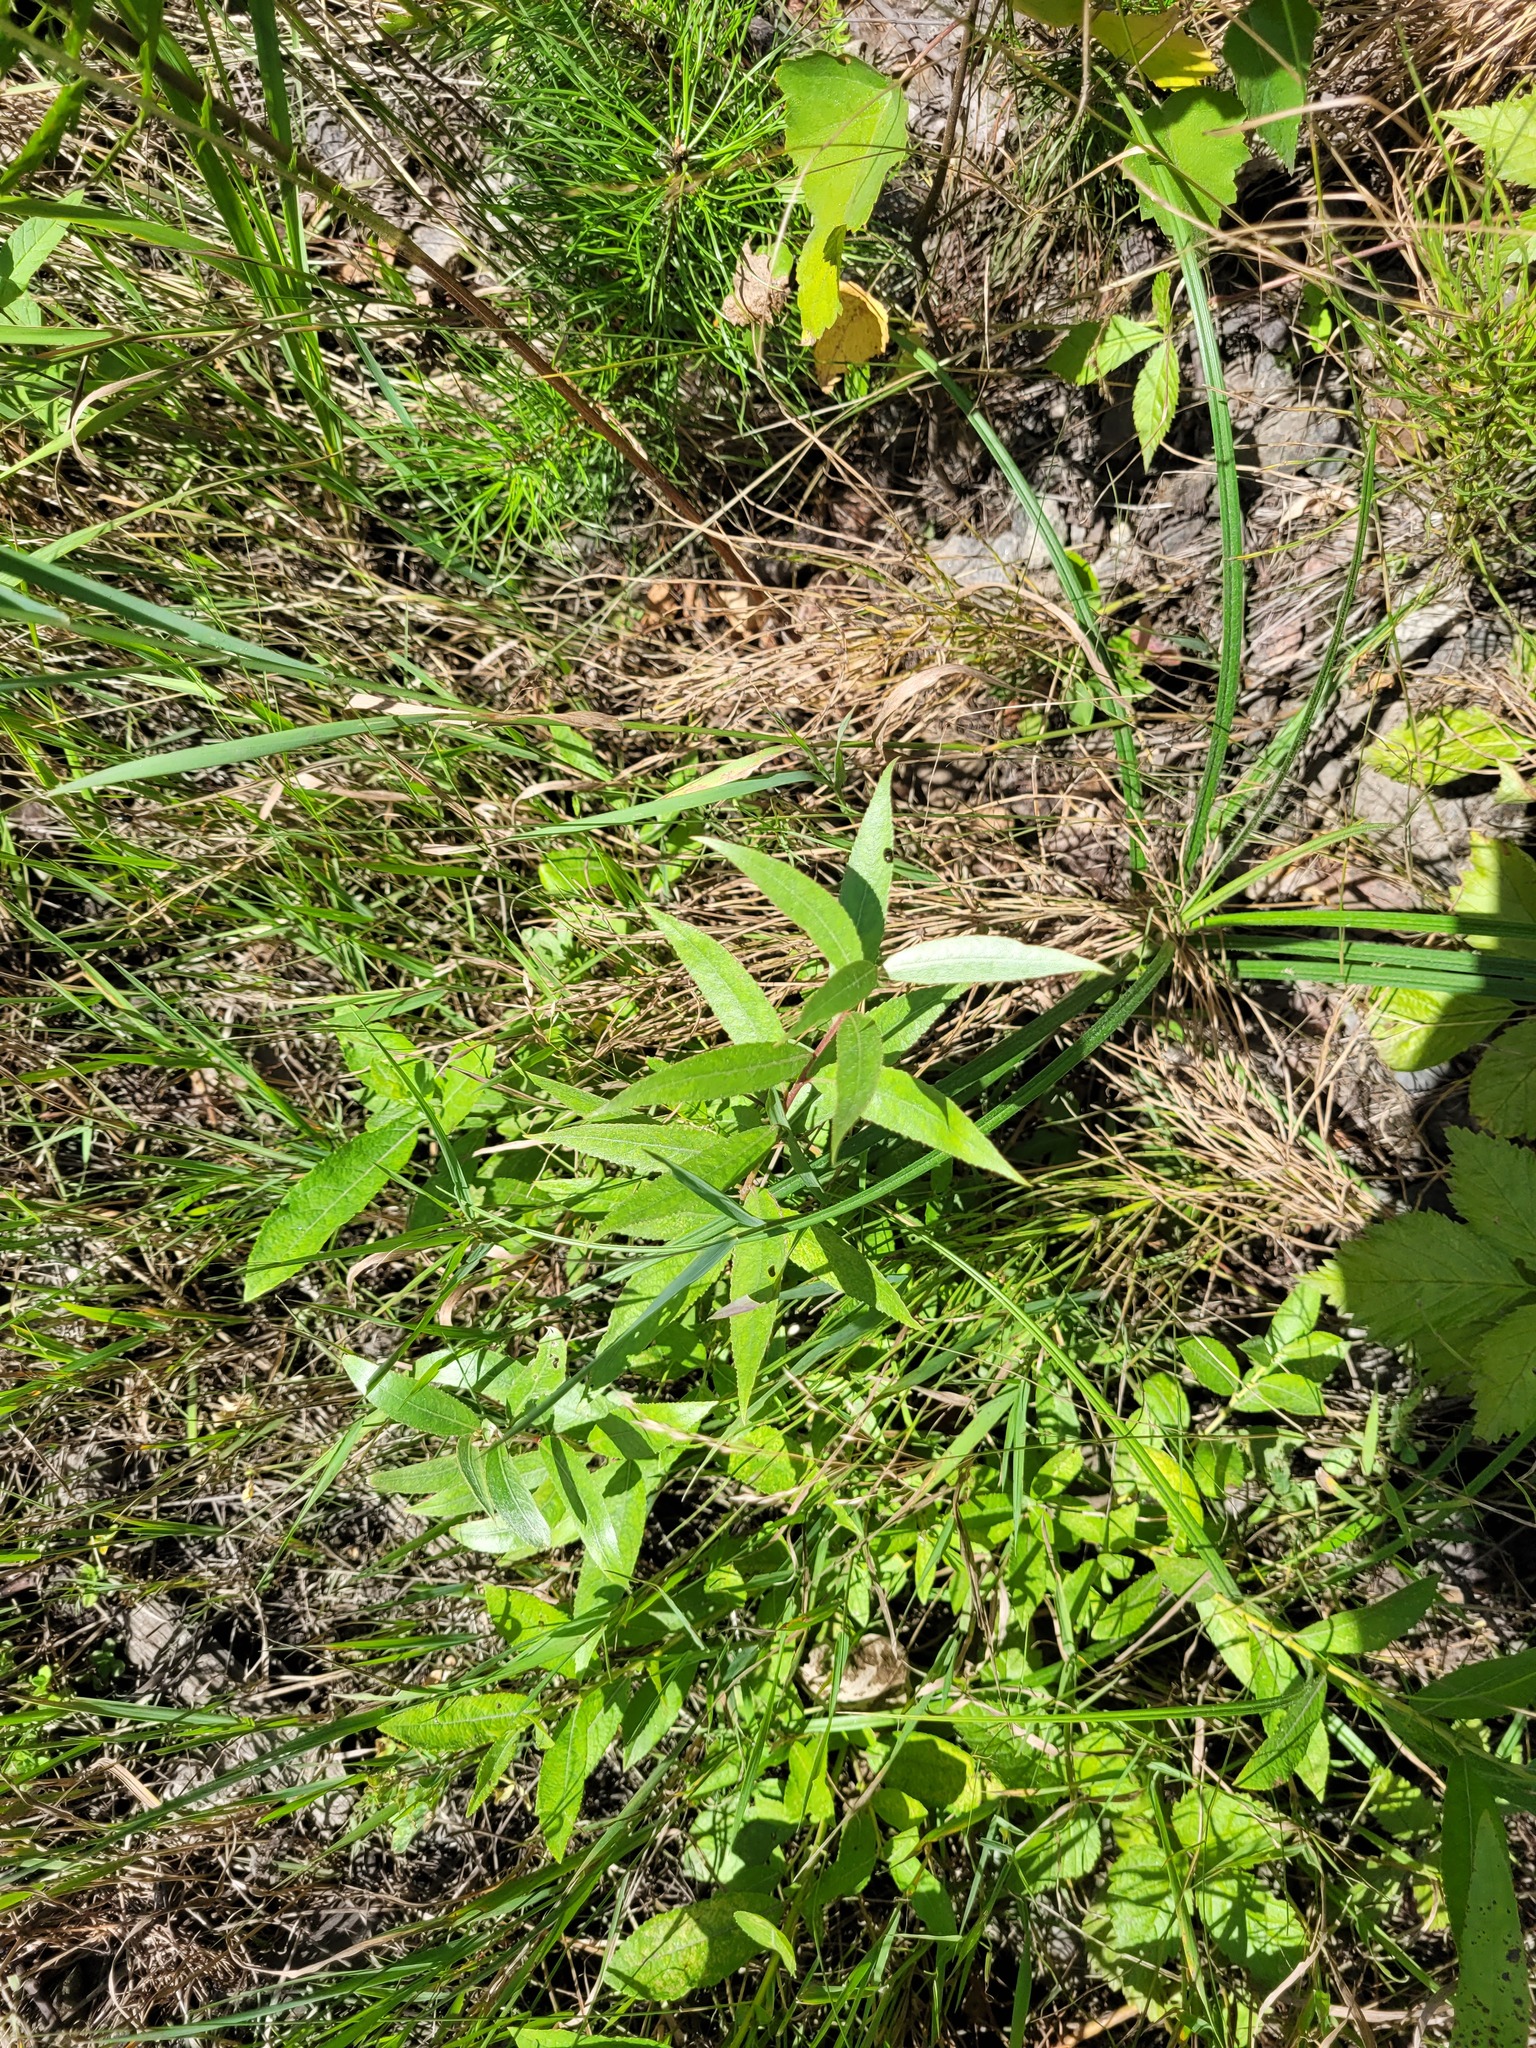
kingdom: Plantae
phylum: Tracheophyta
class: Magnoliopsida
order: Malpighiales
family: Salicaceae
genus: Salix
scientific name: Salix alba
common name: White willow
